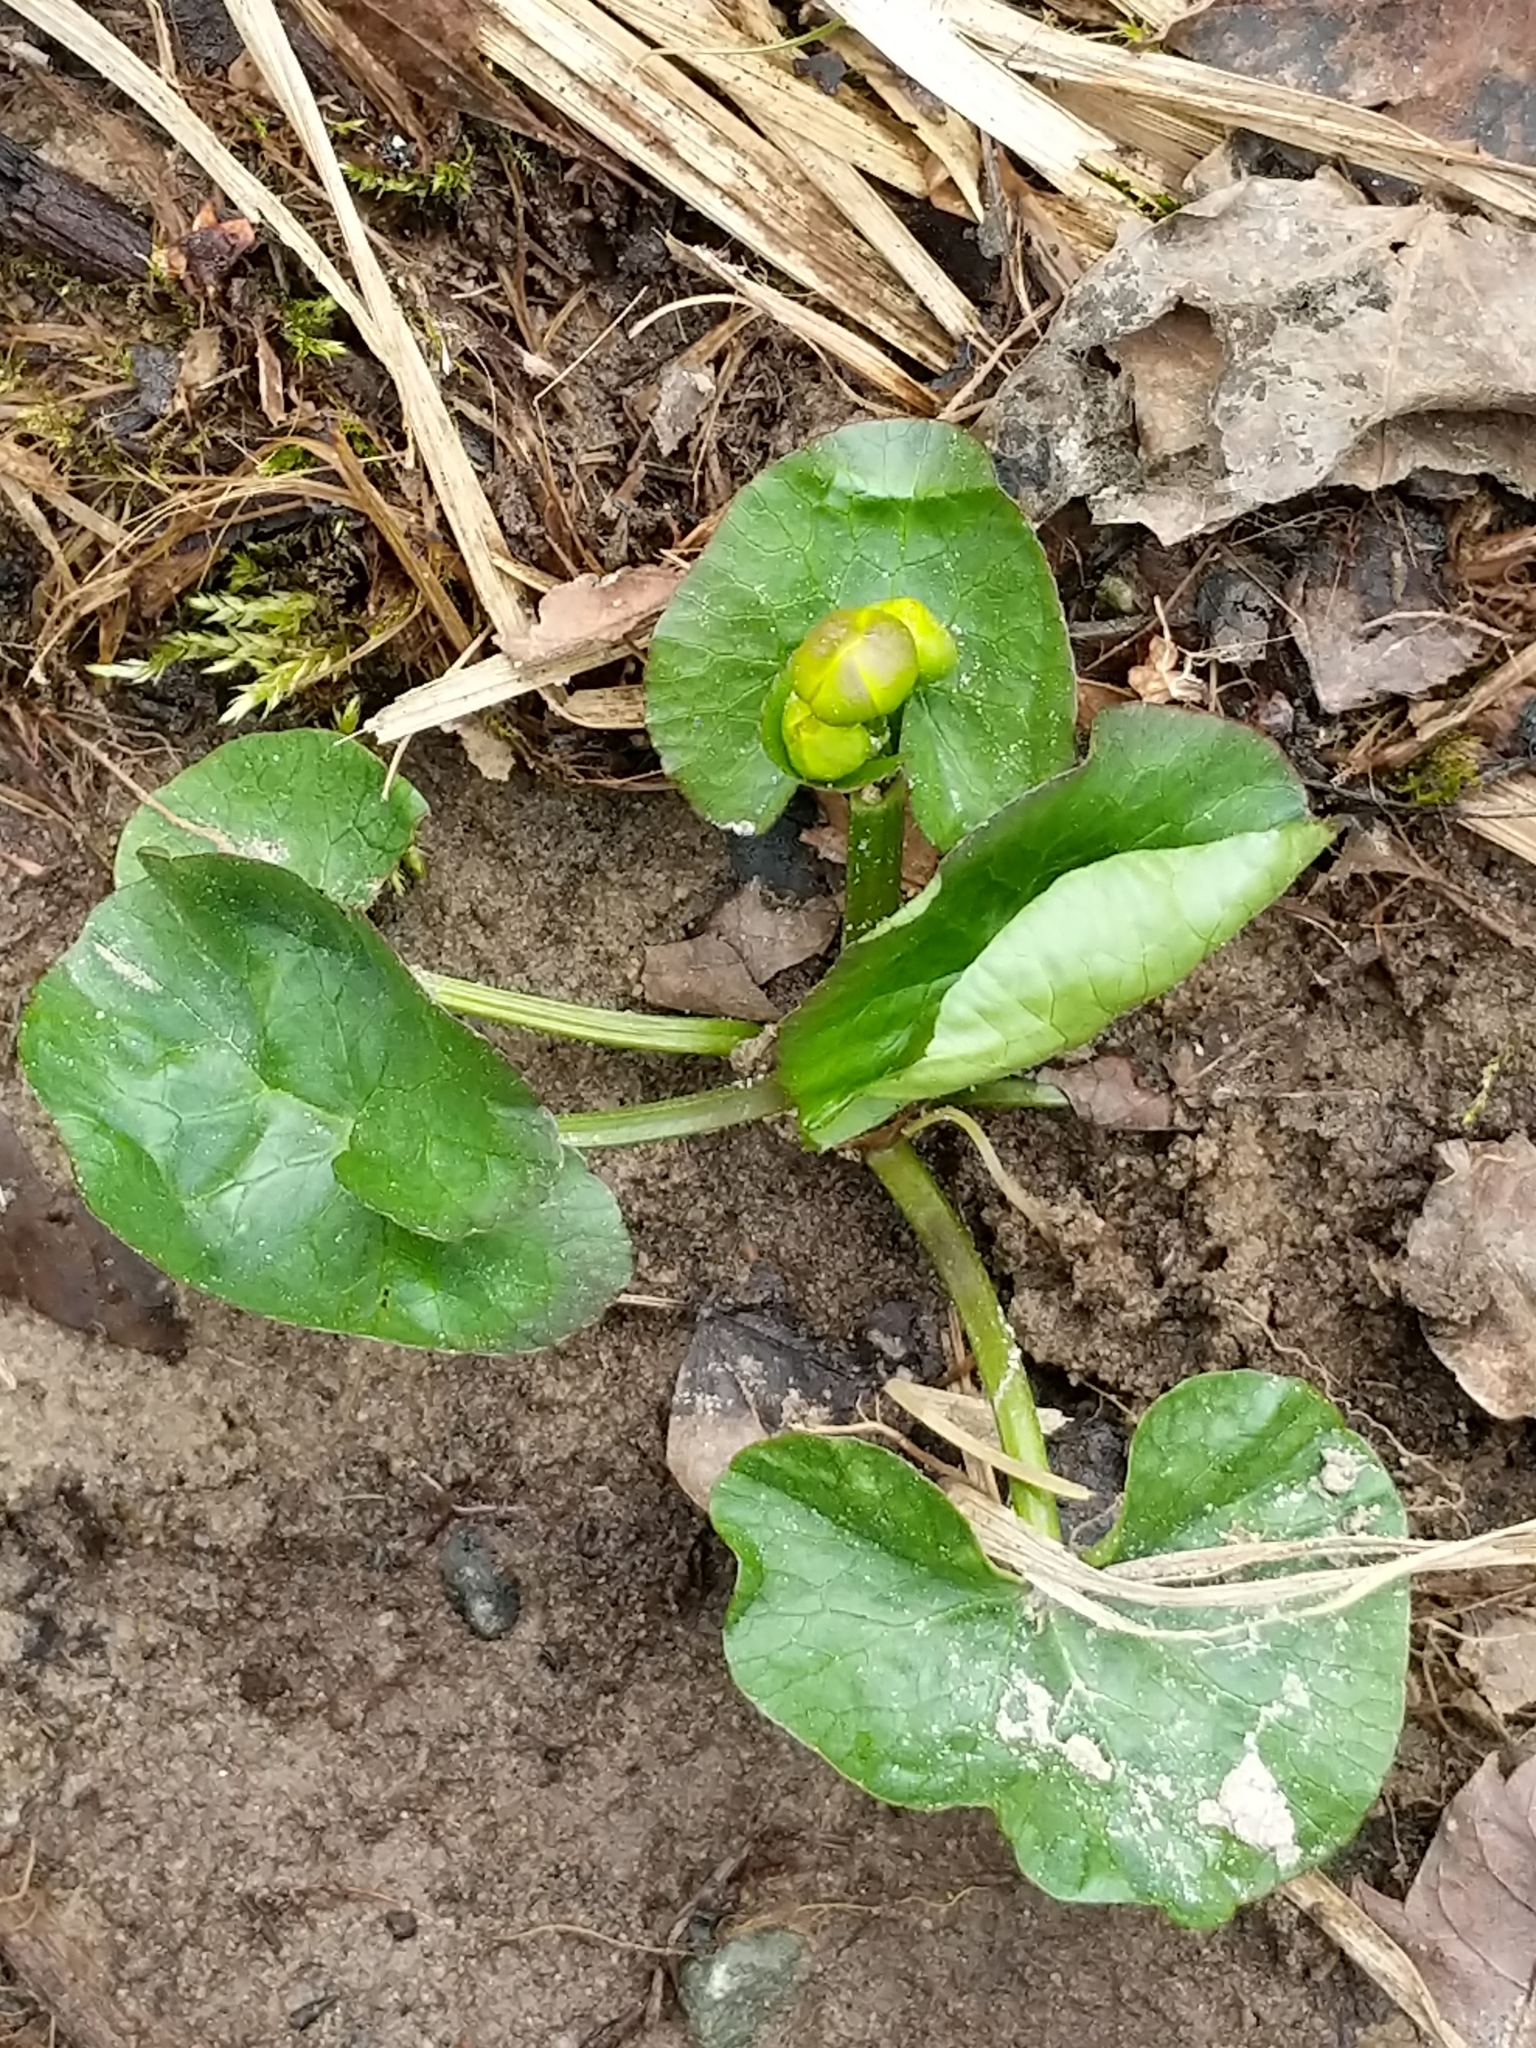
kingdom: Plantae
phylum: Tracheophyta
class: Magnoliopsida
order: Ranunculales
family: Ranunculaceae
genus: Caltha
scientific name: Caltha palustris
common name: Marsh marigold
